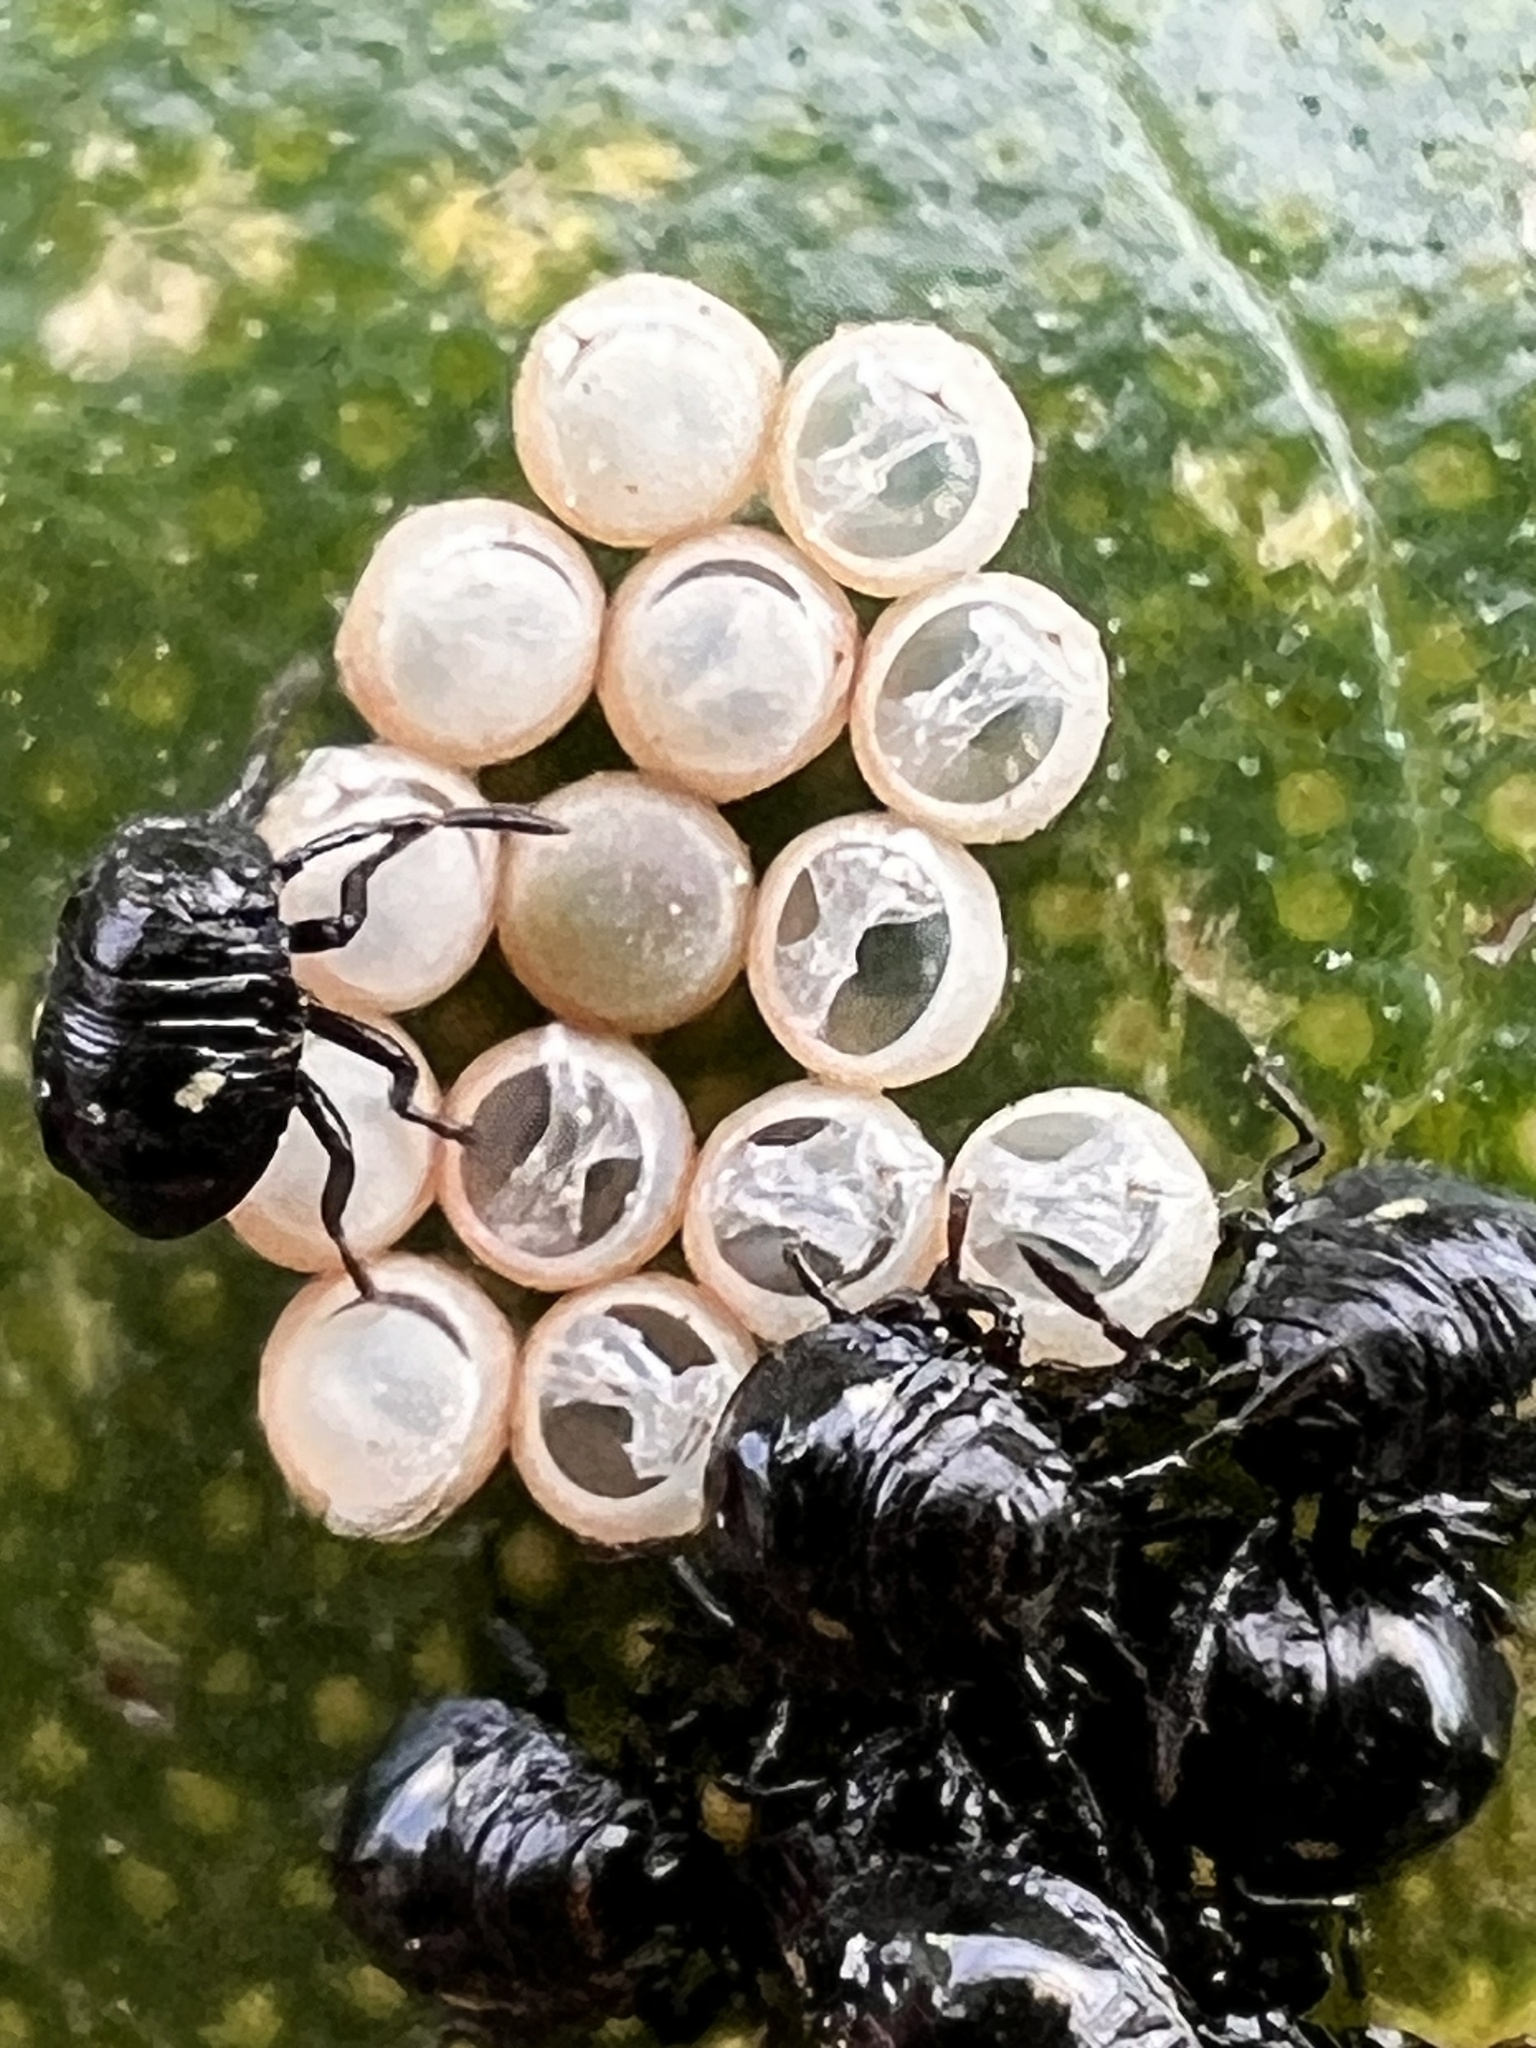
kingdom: Animalia
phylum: Arthropoda
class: Insecta
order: Hemiptera
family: Pentatomidae
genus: Glaucias
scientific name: Glaucias amyota
